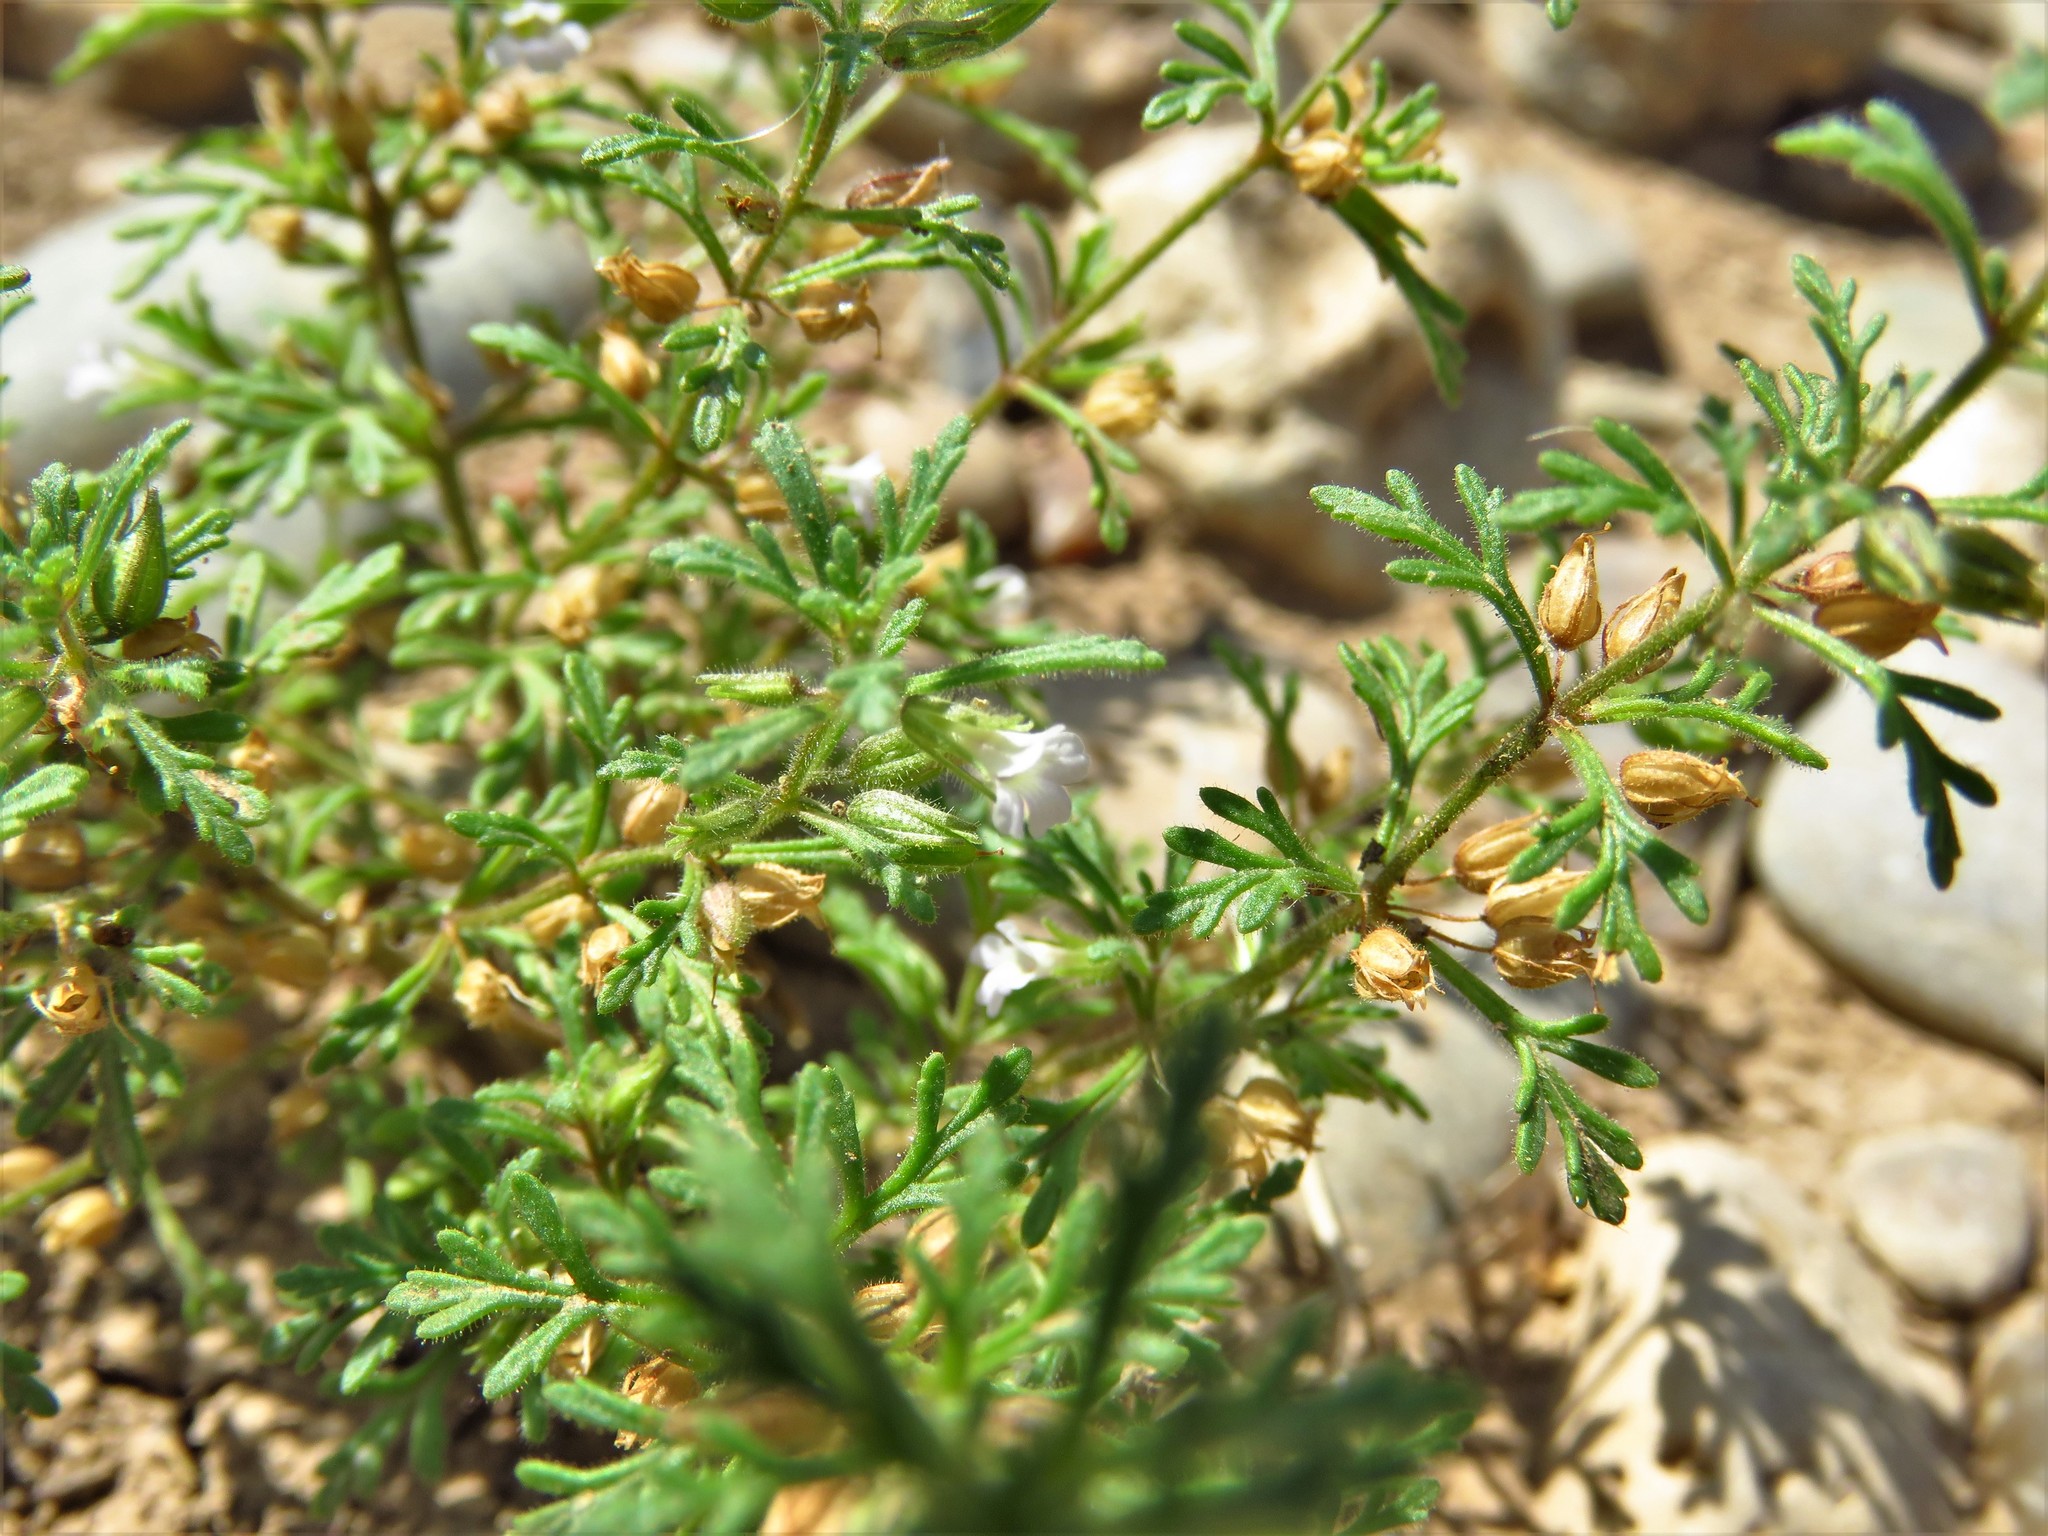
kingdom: Plantae
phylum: Tracheophyta
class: Magnoliopsida
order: Lamiales
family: Plantaginaceae
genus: Leucospora
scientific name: Leucospora multifida
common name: Narrow-leaf paleseed
